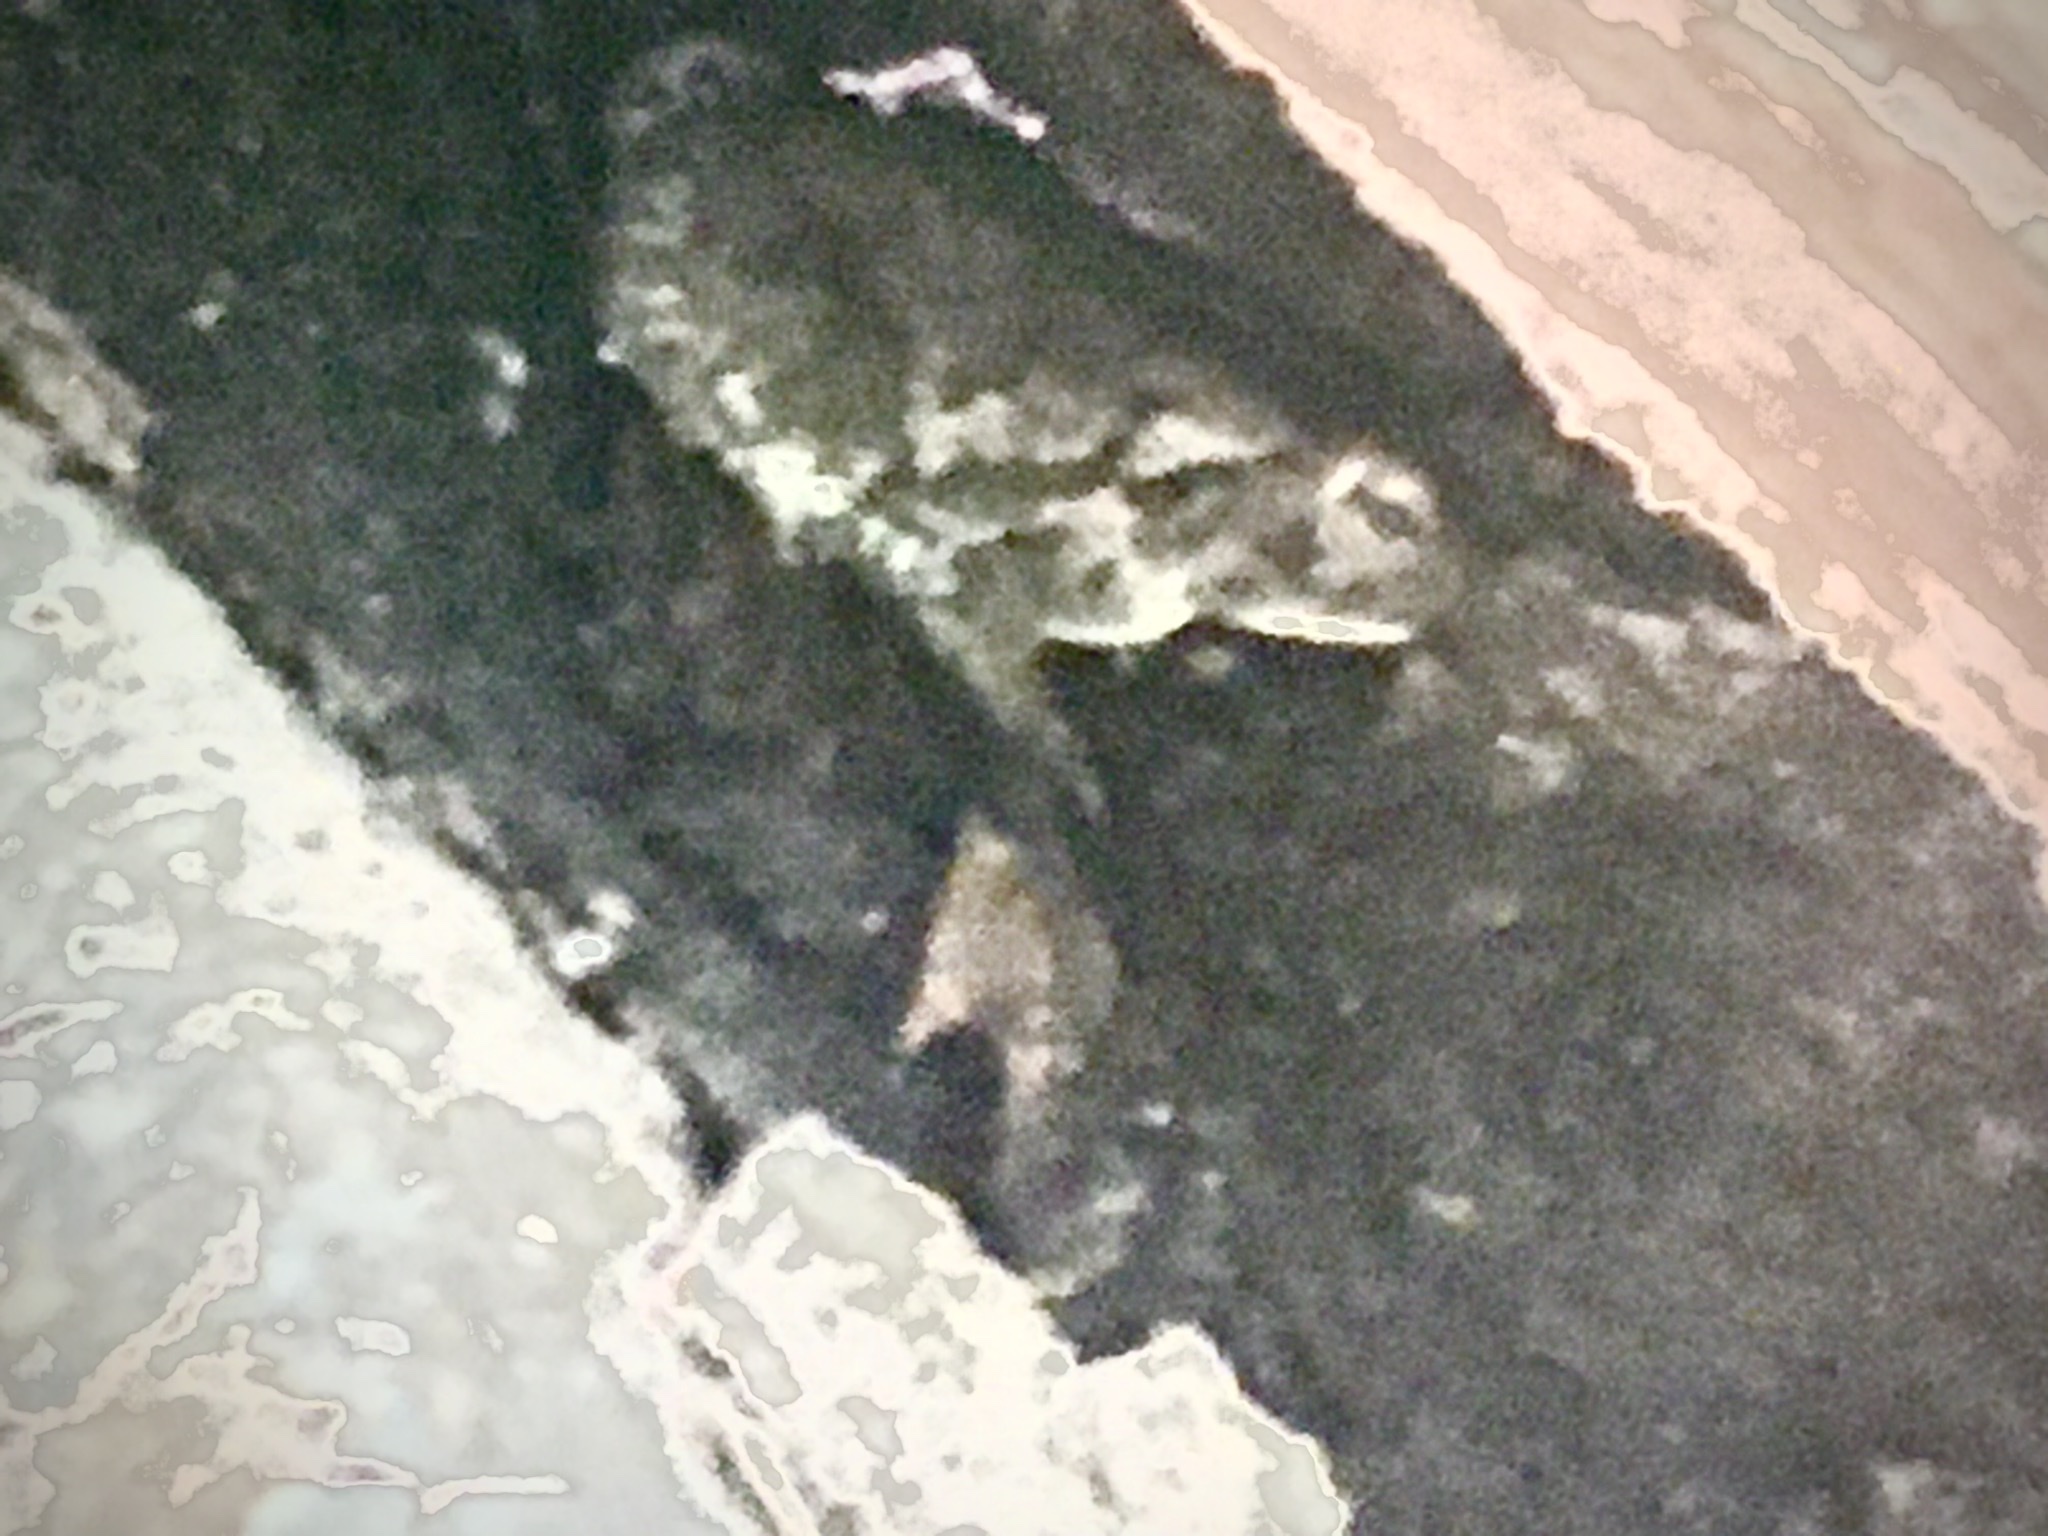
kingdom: Animalia
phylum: Chordata
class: Amphibia
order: Anura
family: Bufonidae
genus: Anaxyrus
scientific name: Anaxyrus fowleri
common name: Fowler's toad
